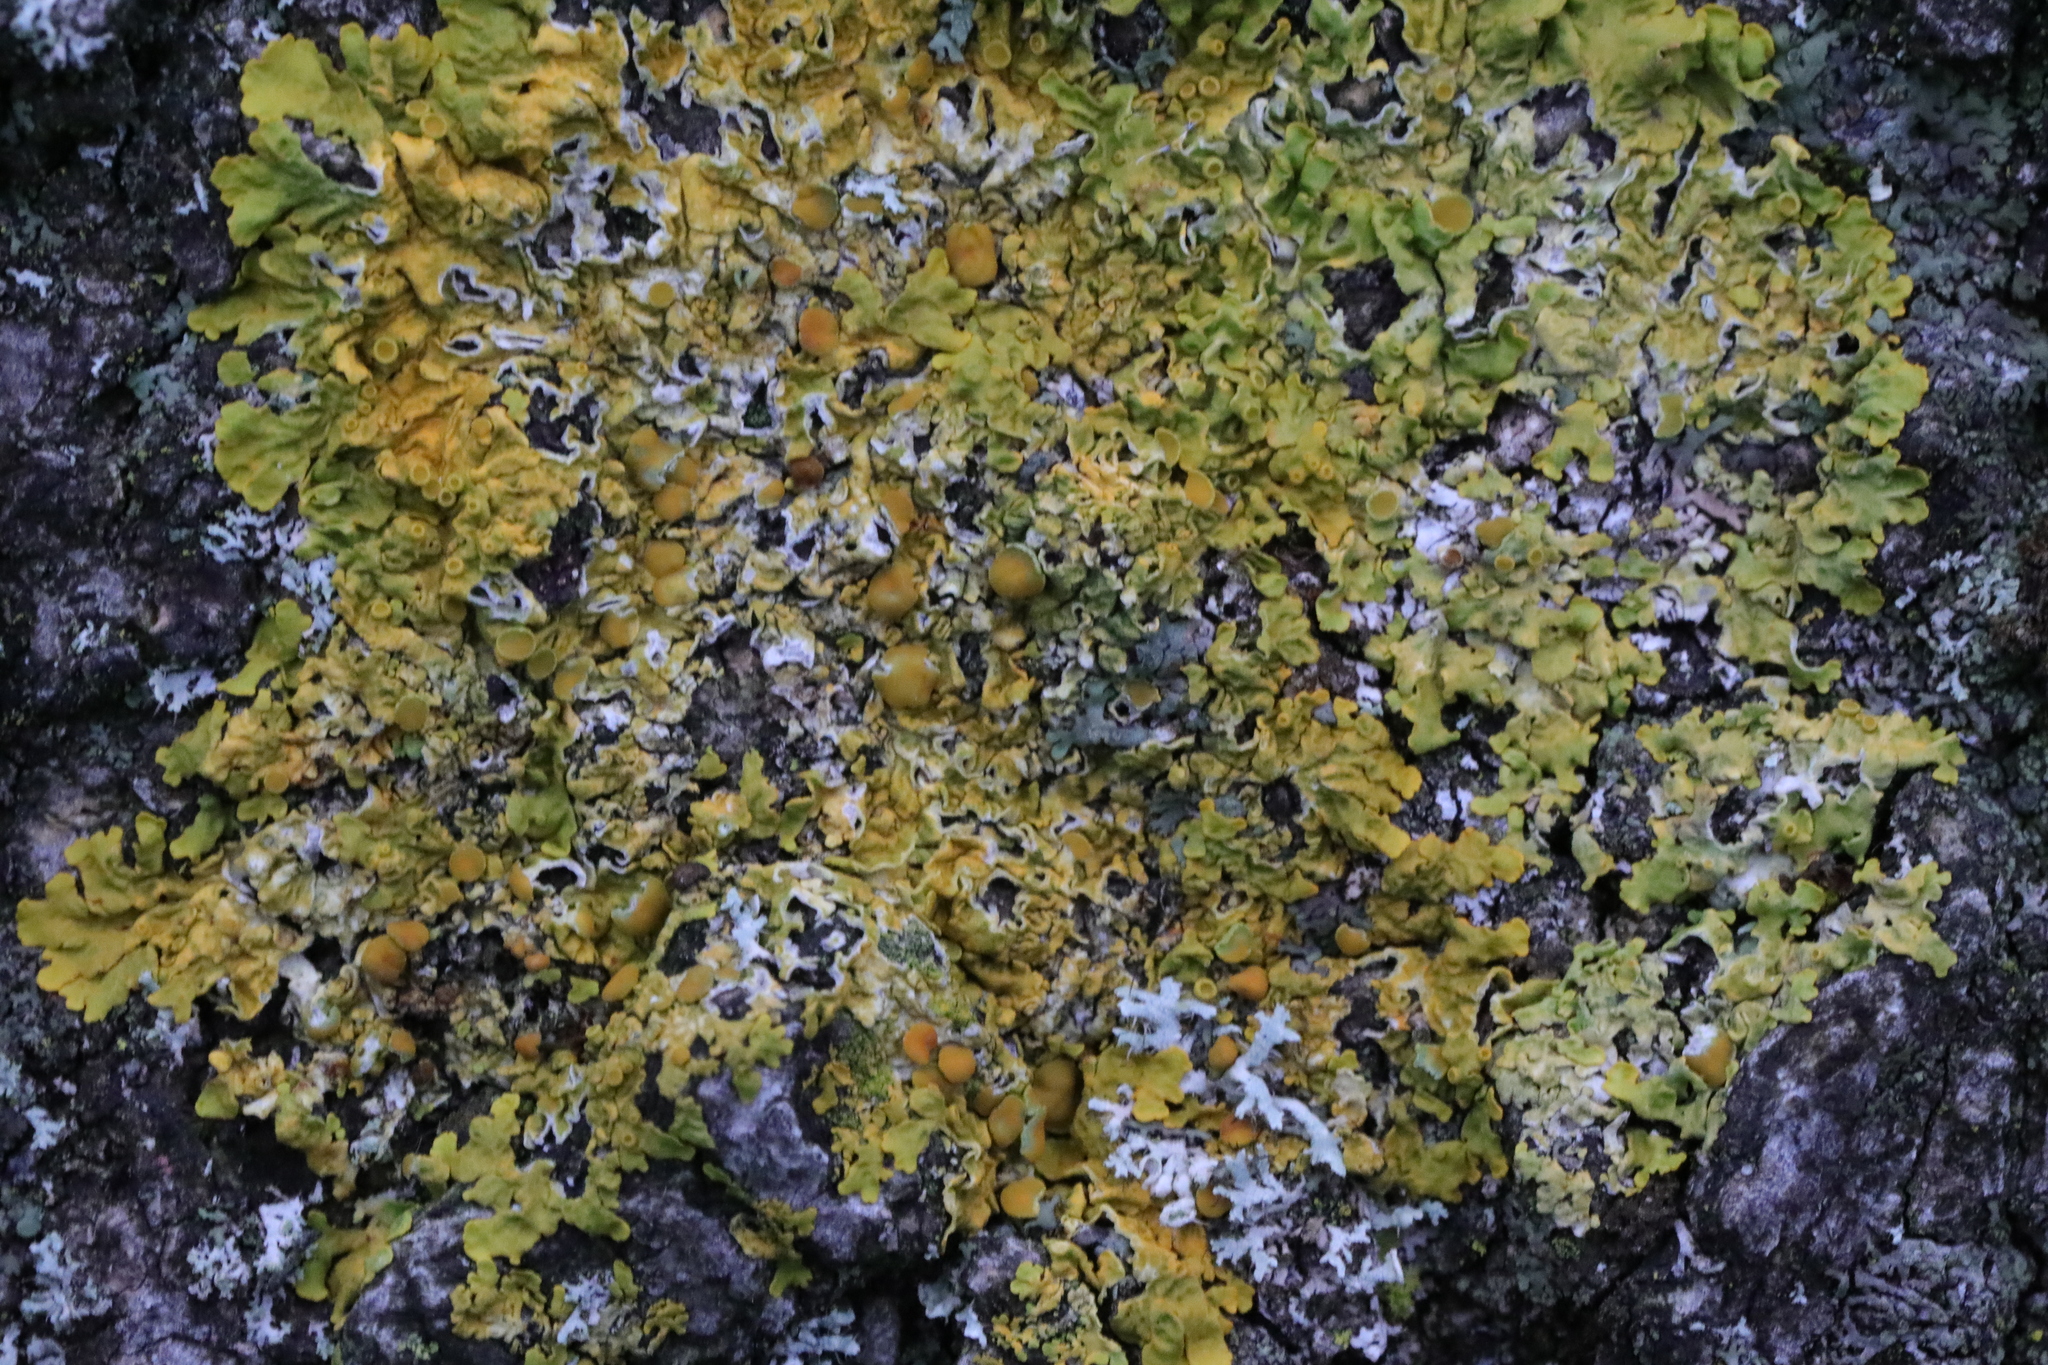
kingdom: Fungi
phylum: Ascomycota
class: Lecanoromycetes
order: Teloschistales
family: Teloschistaceae
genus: Xanthoria
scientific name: Xanthoria parietina
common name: Common orange lichen
